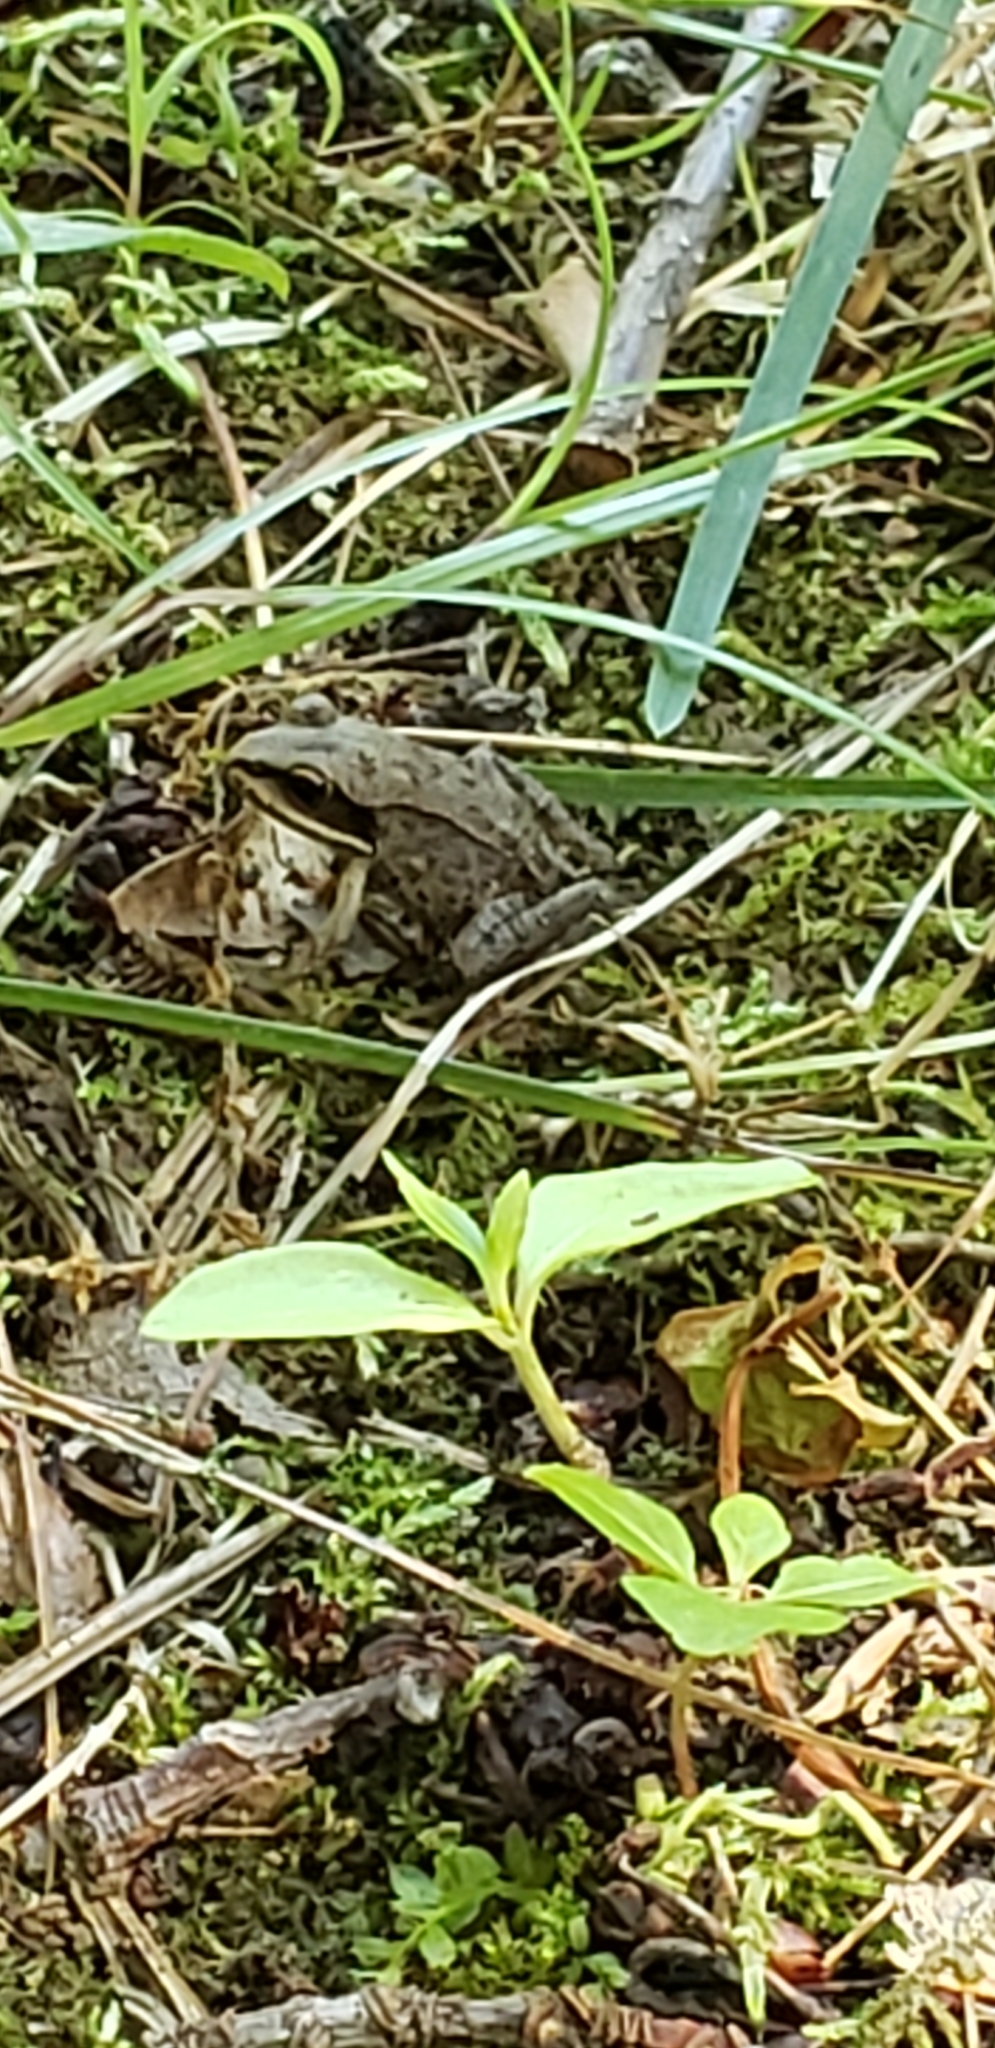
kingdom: Animalia
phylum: Chordata
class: Amphibia
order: Anura
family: Ranidae
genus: Lithobates
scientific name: Lithobates sylvaticus
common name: Wood frog
